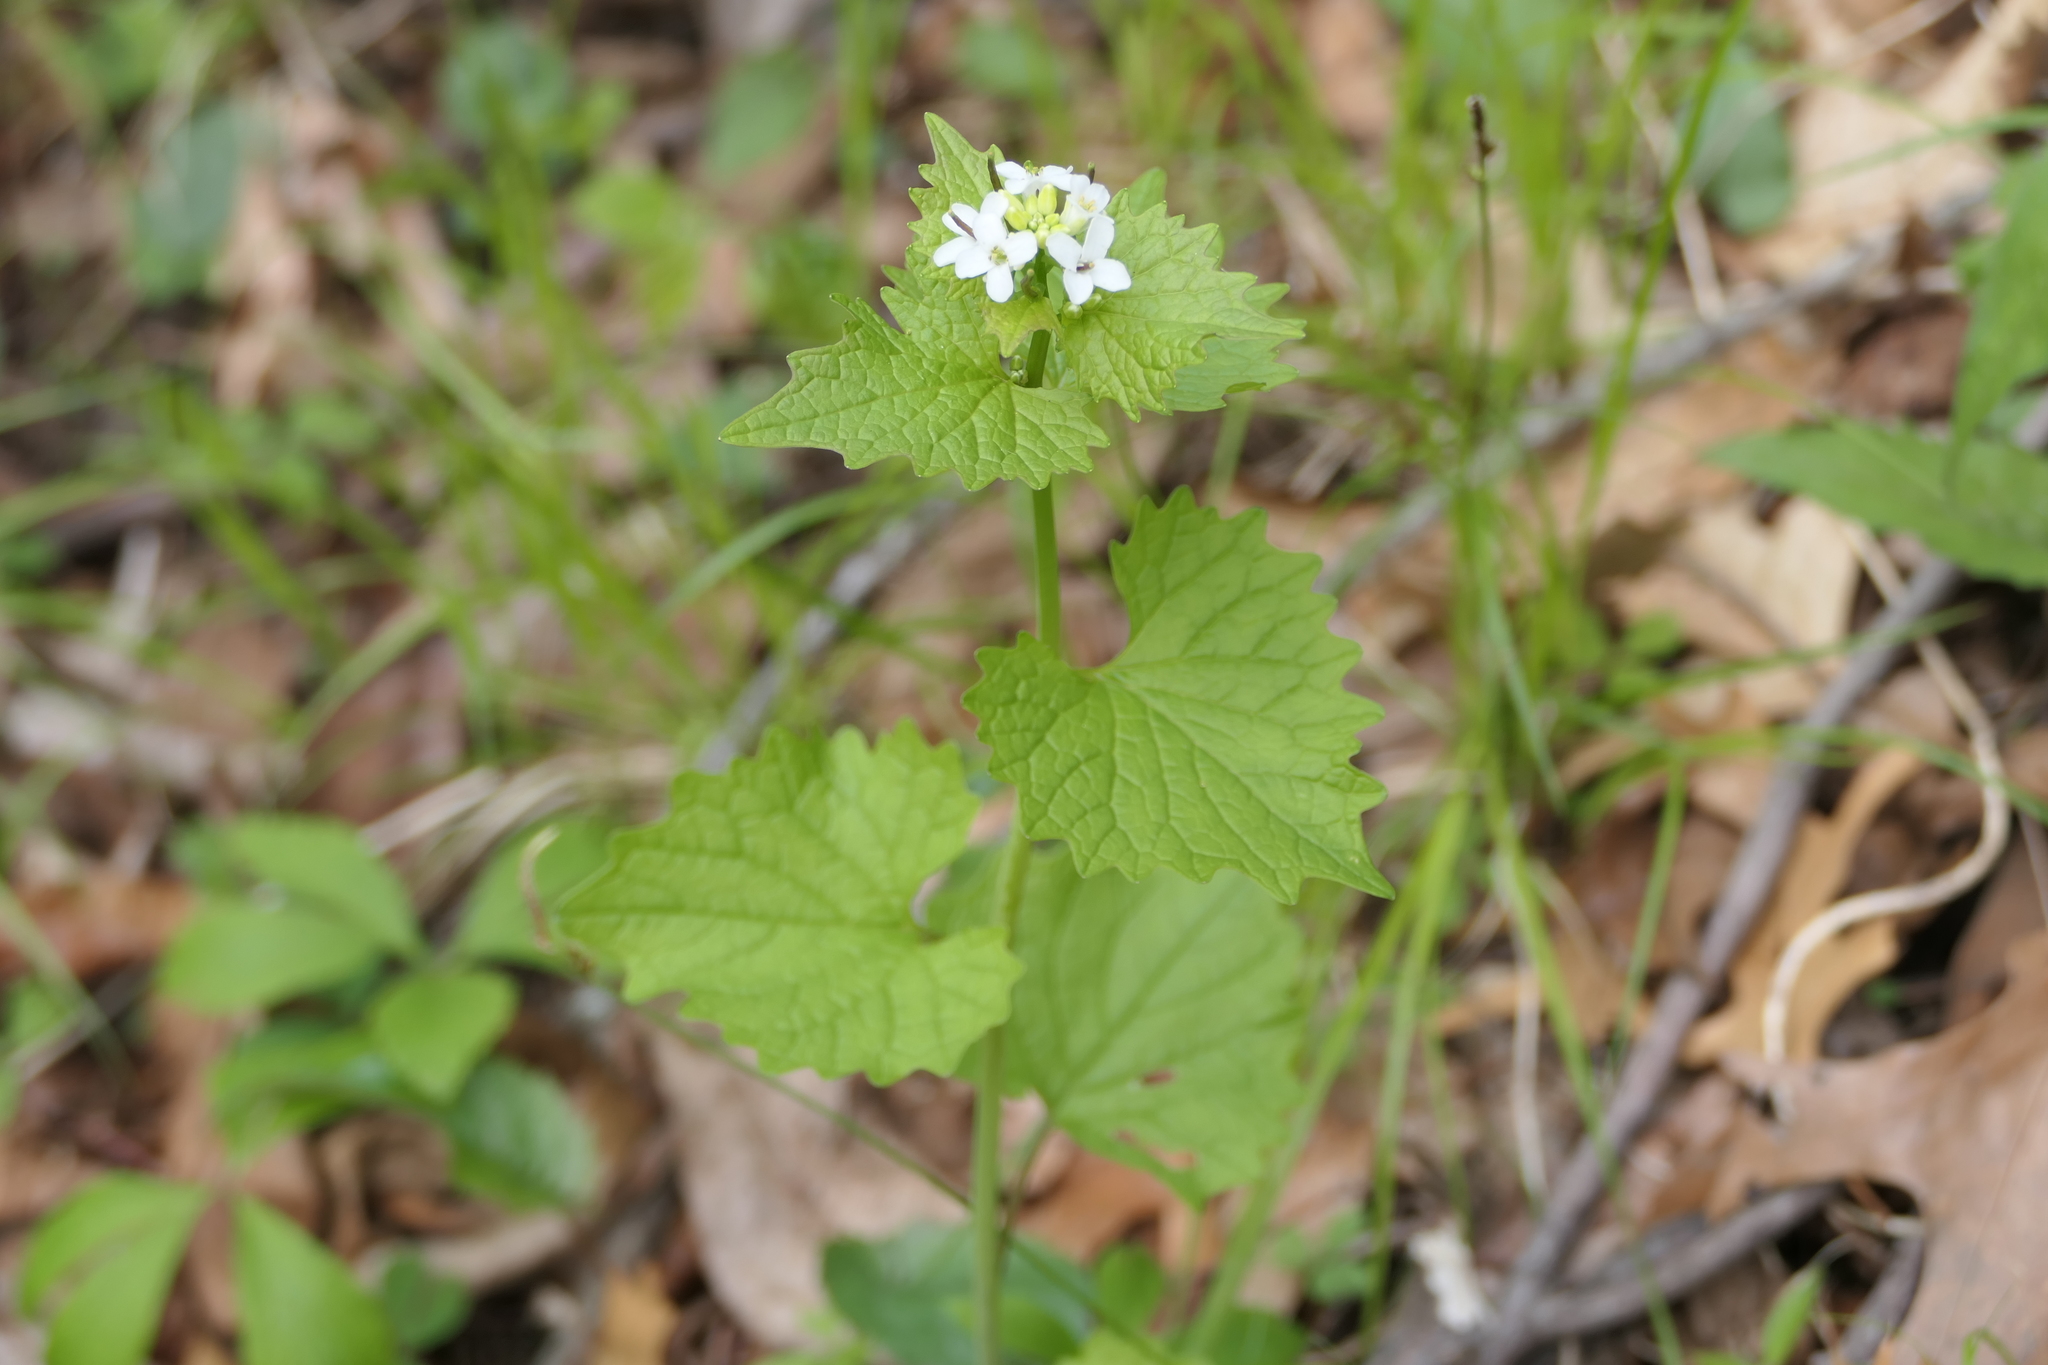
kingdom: Plantae
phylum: Tracheophyta
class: Magnoliopsida
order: Brassicales
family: Brassicaceae
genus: Alliaria
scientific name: Alliaria petiolata
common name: Garlic mustard
